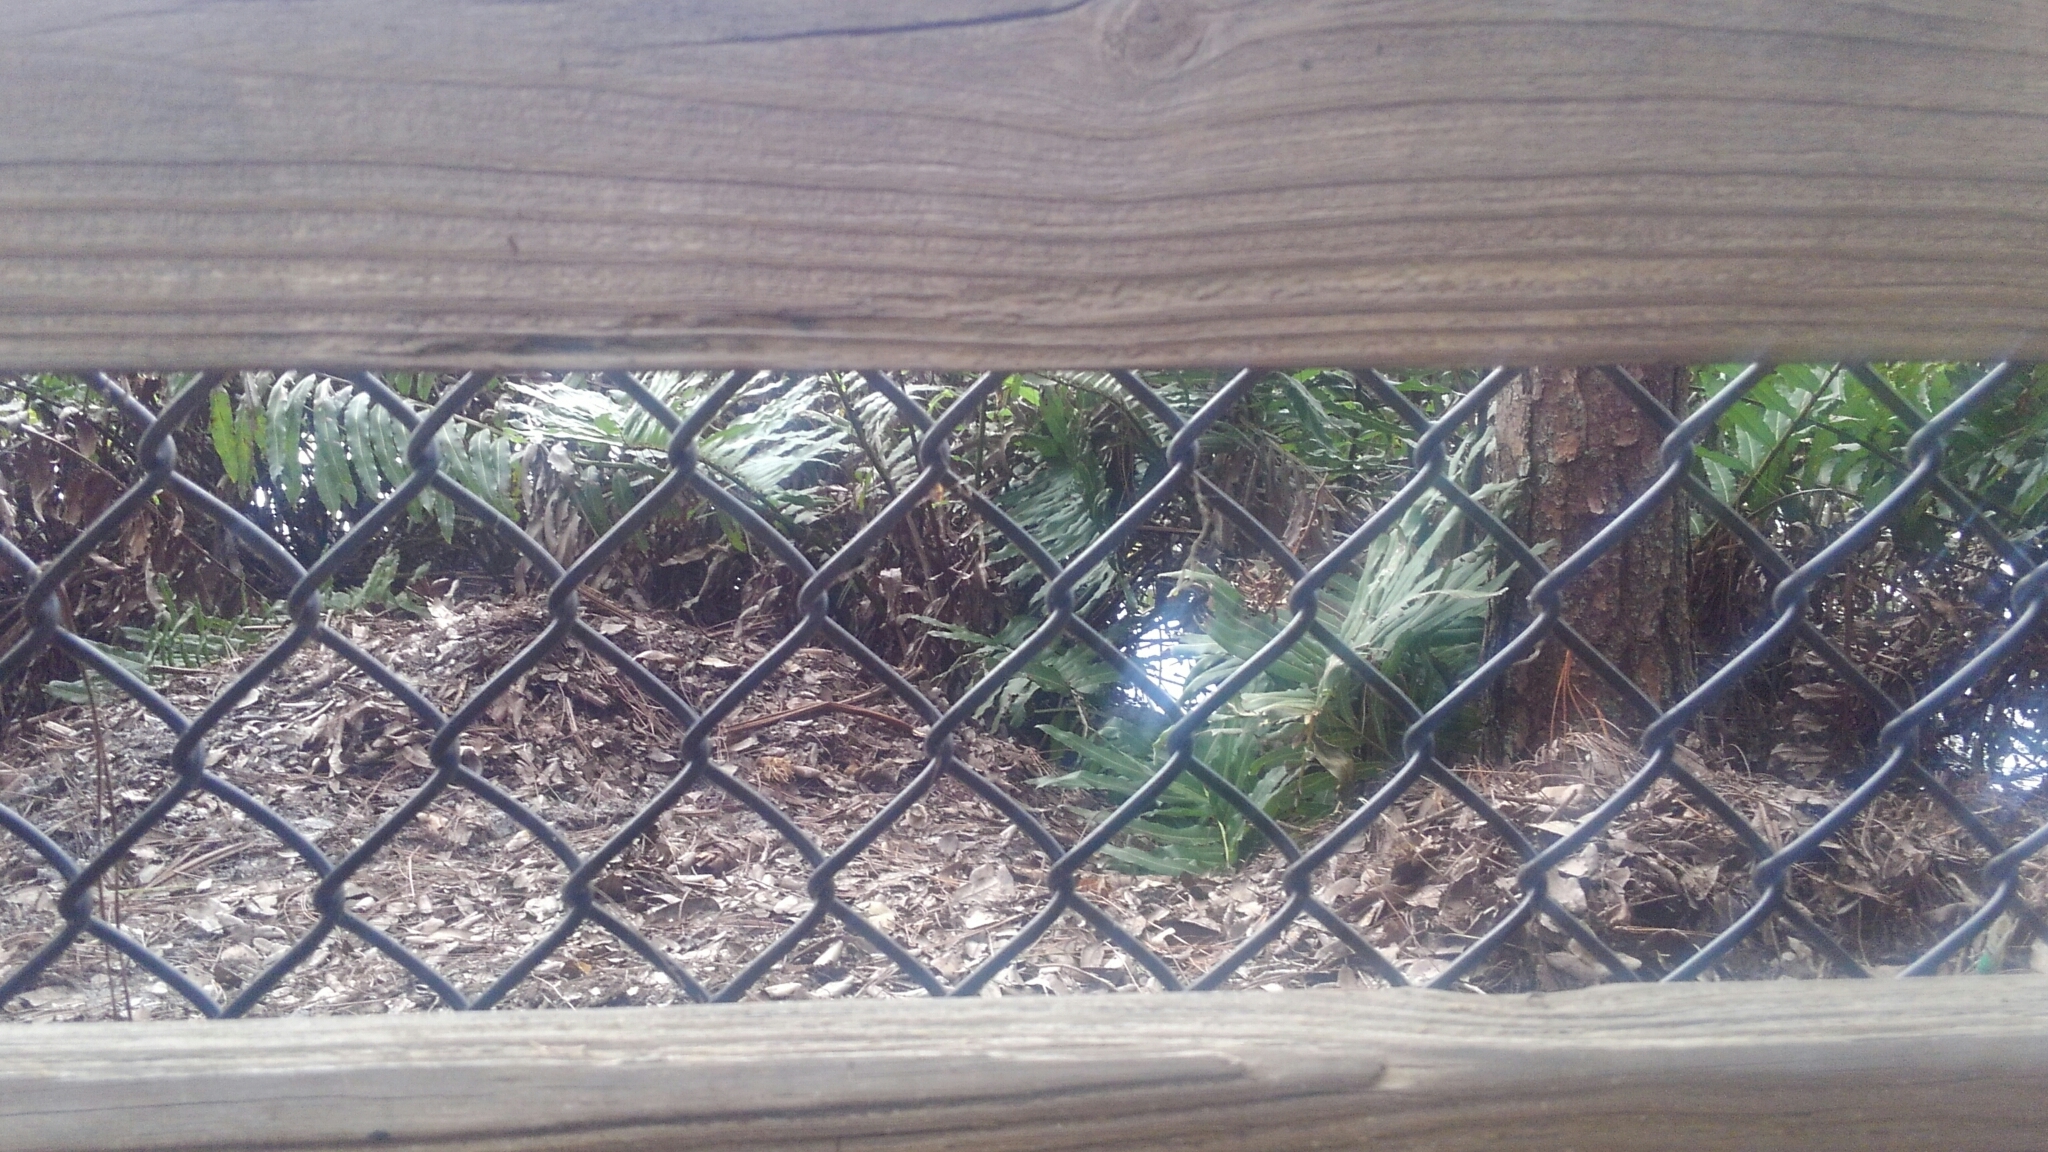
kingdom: Animalia
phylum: Chordata
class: Crocodylia
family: Alligatoridae
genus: Alligator
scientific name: Alligator mississippiensis
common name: American alligator
